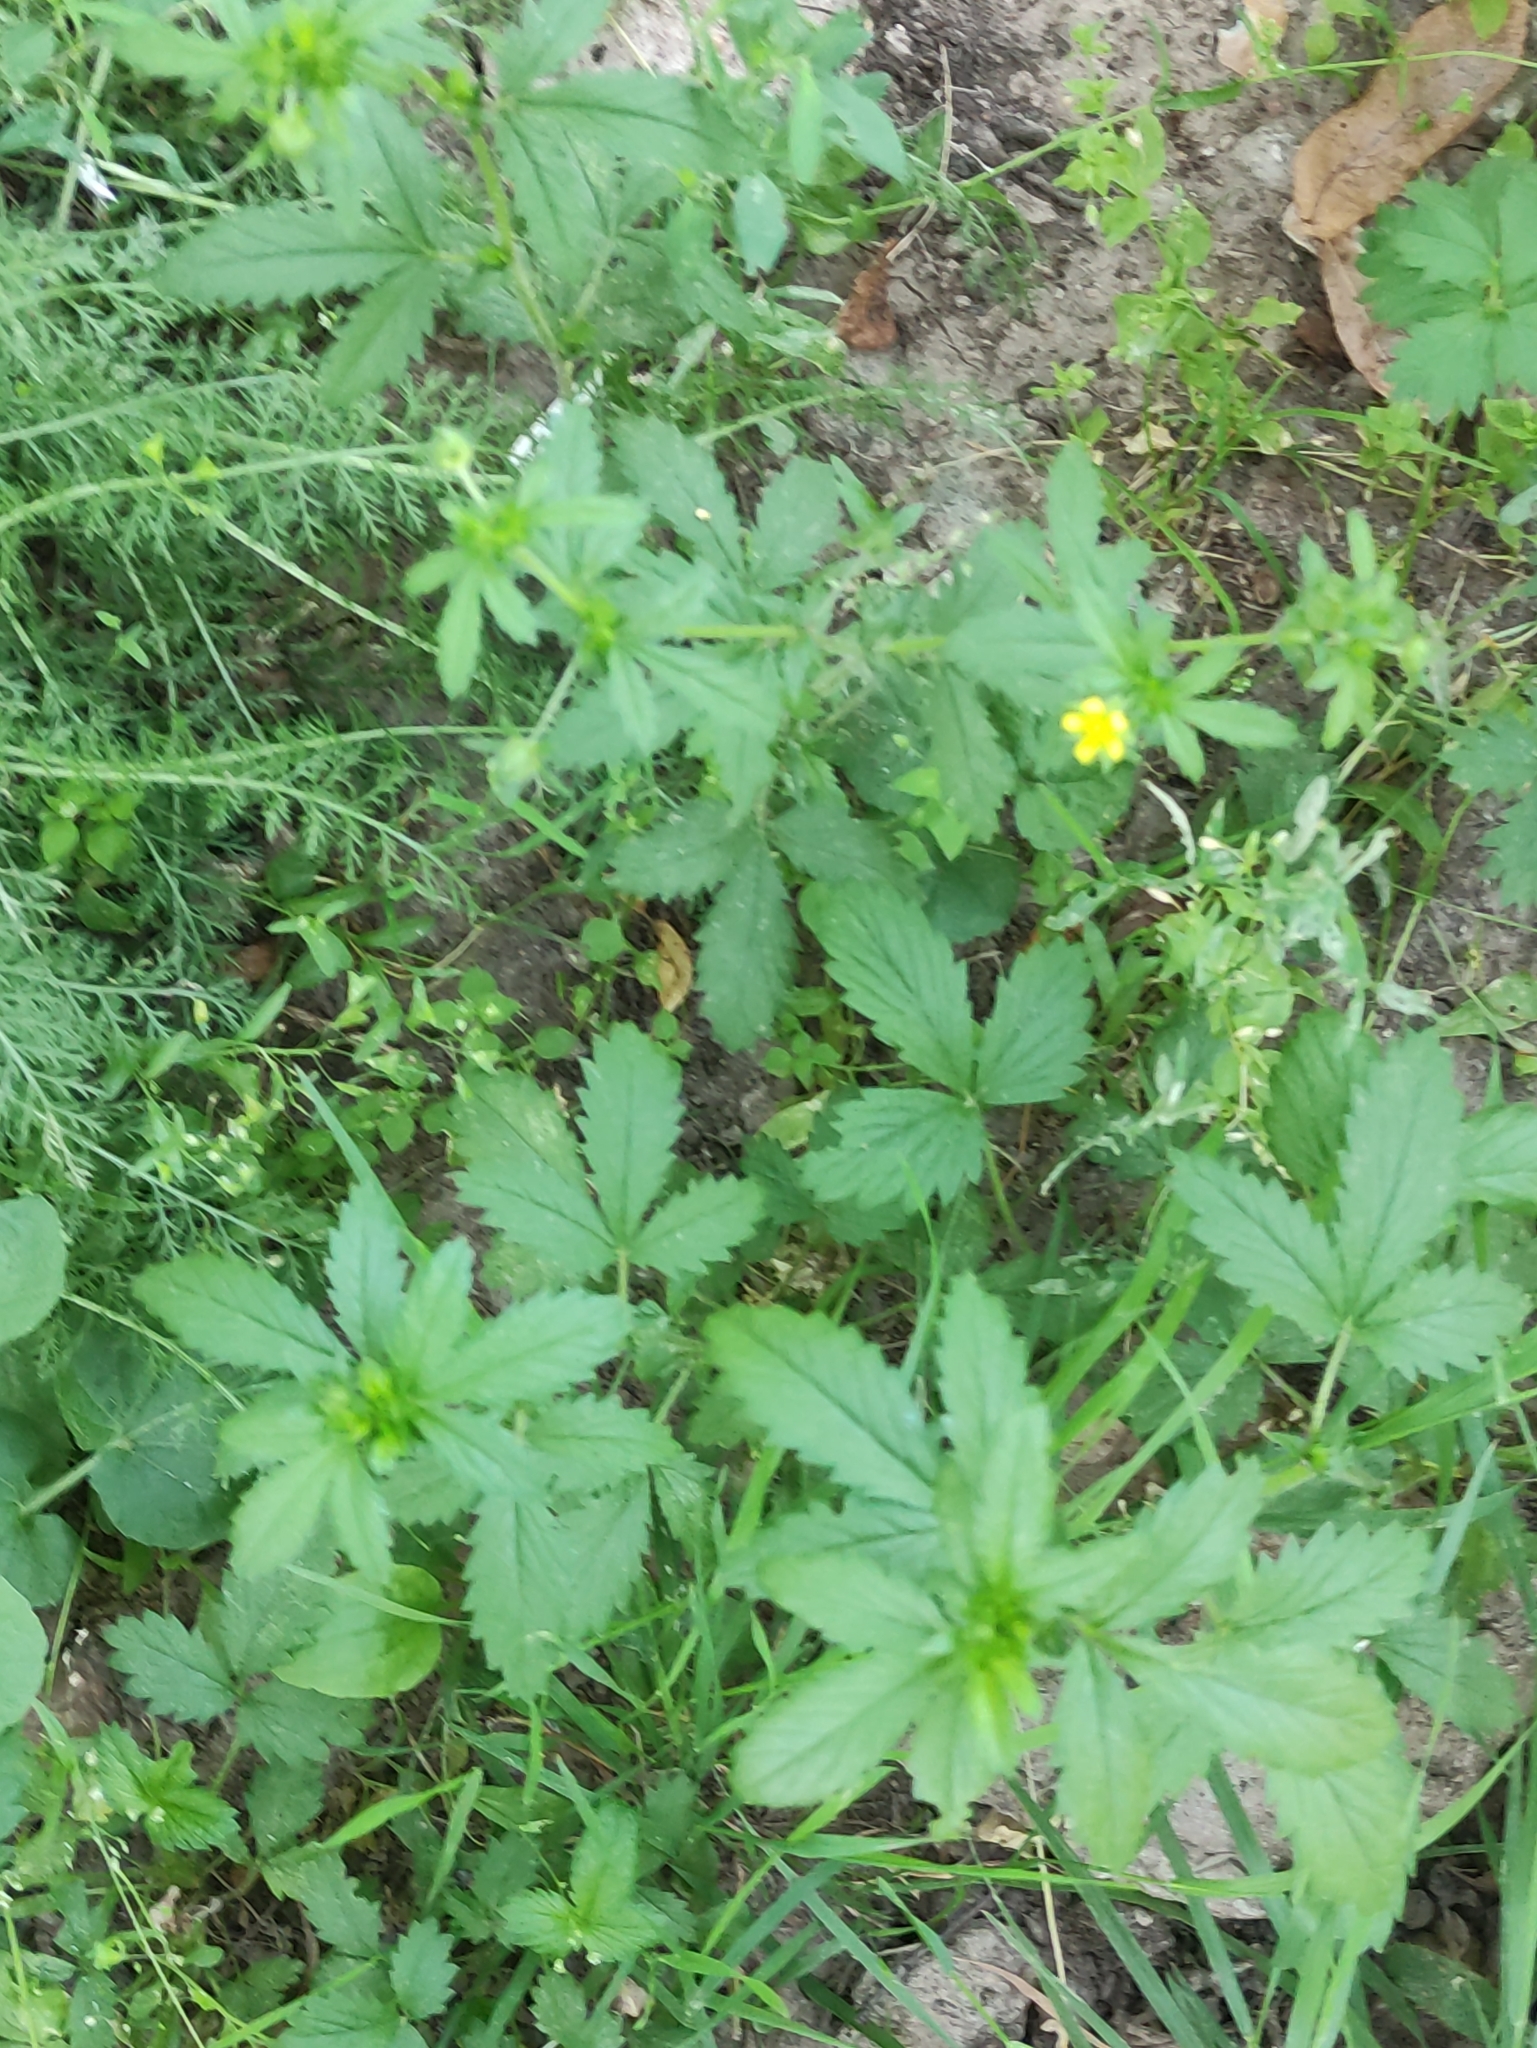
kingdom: Plantae
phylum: Tracheophyta
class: Magnoliopsida
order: Rosales
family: Rosaceae
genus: Potentilla
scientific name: Potentilla norvegica
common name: Ternate-leaved cinquefoil
